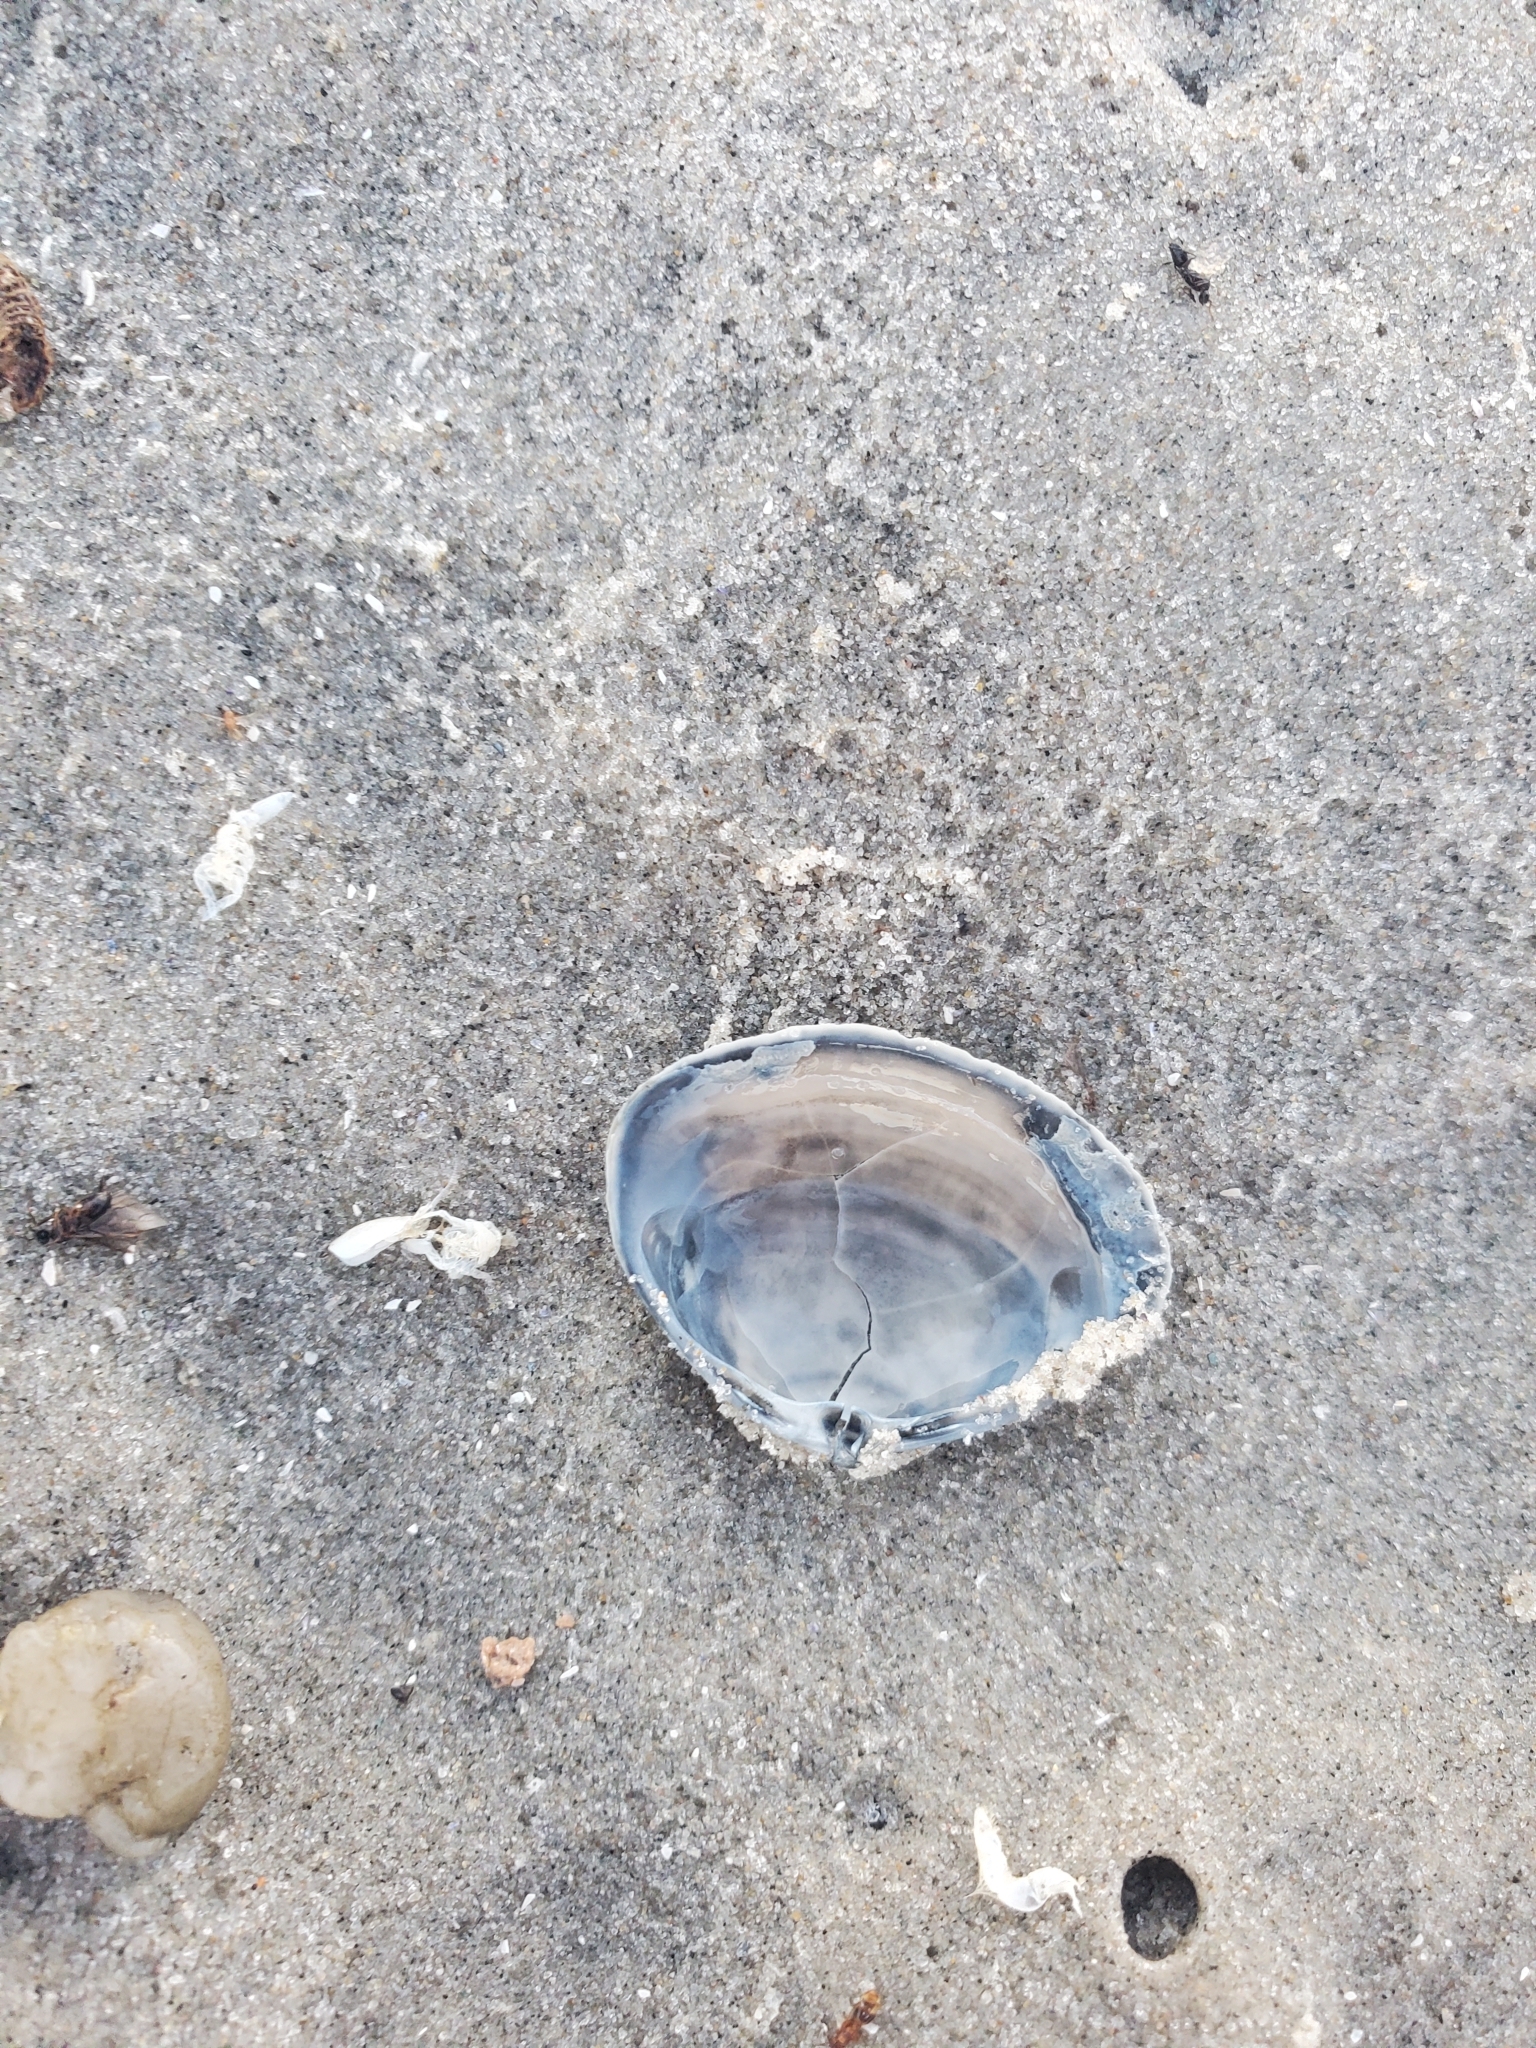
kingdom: Animalia
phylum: Mollusca
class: Bivalvia
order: Venerida
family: Mactridae
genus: Spisula
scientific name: Spisula solidissima
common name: Atlantic surf clam
